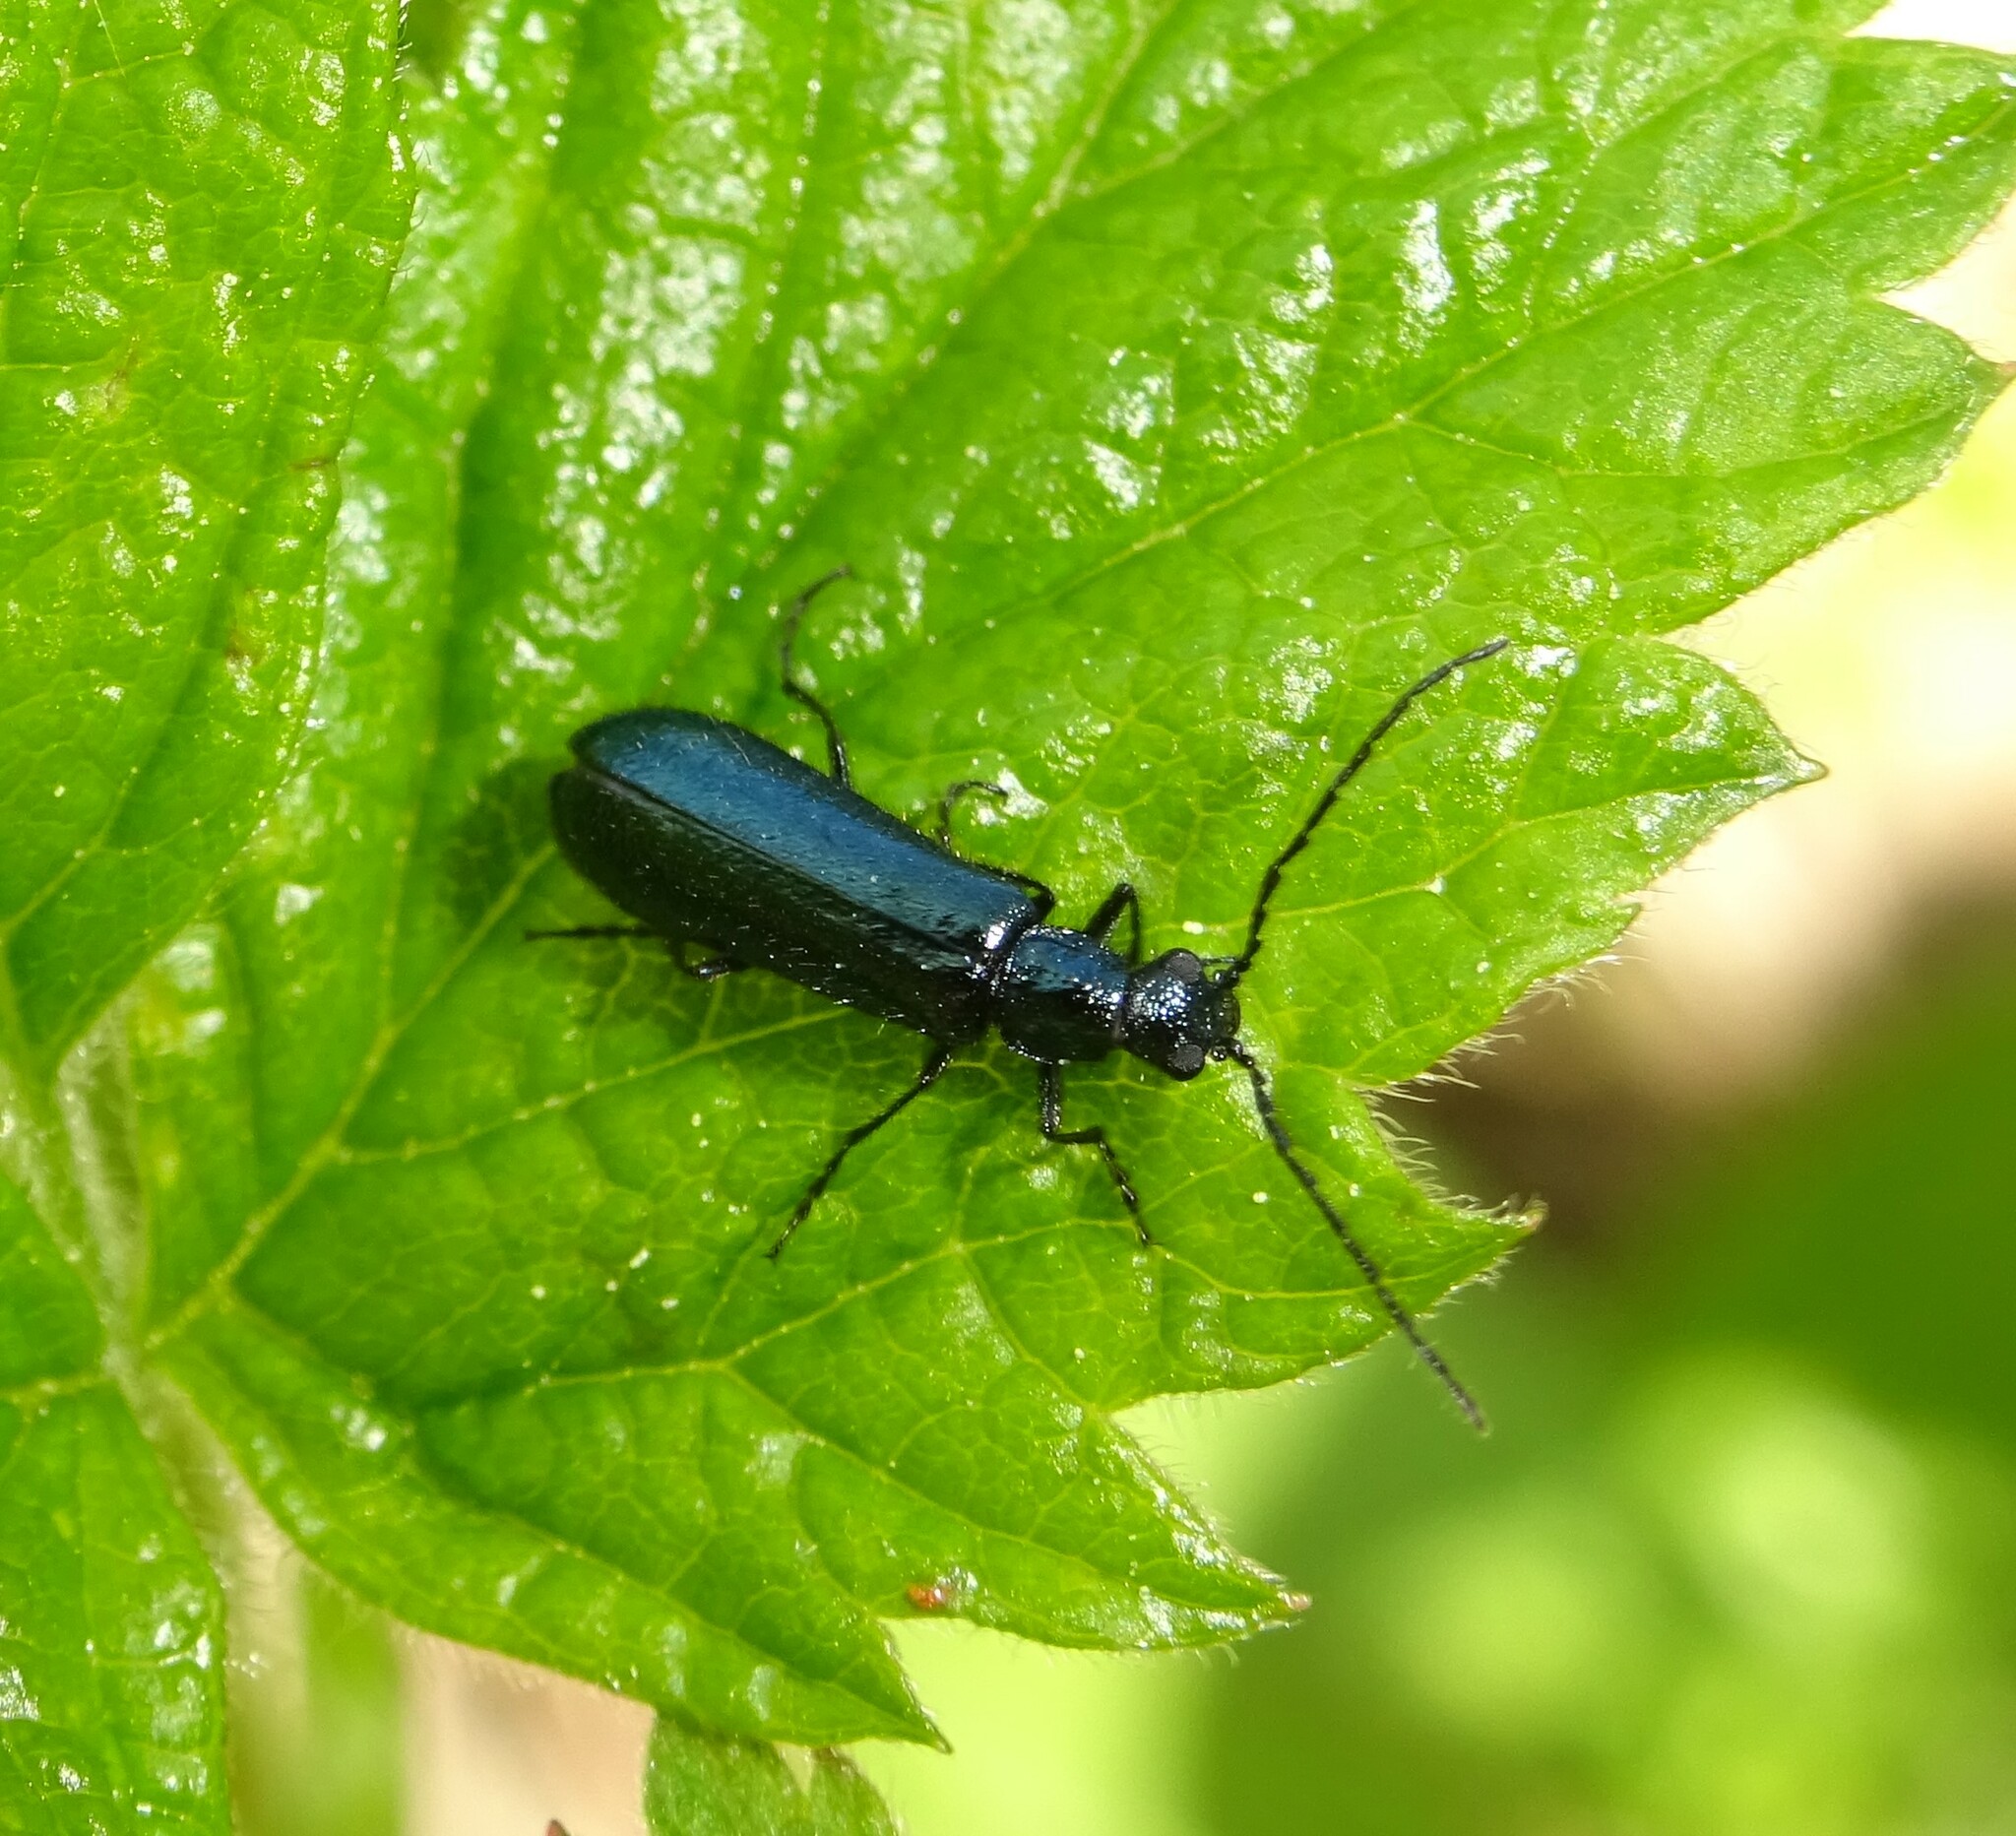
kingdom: Animalia
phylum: Arthropoda
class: Insecta
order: Coleoptera
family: Melyridae
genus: Dasytes
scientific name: Dasytes caeruleus
